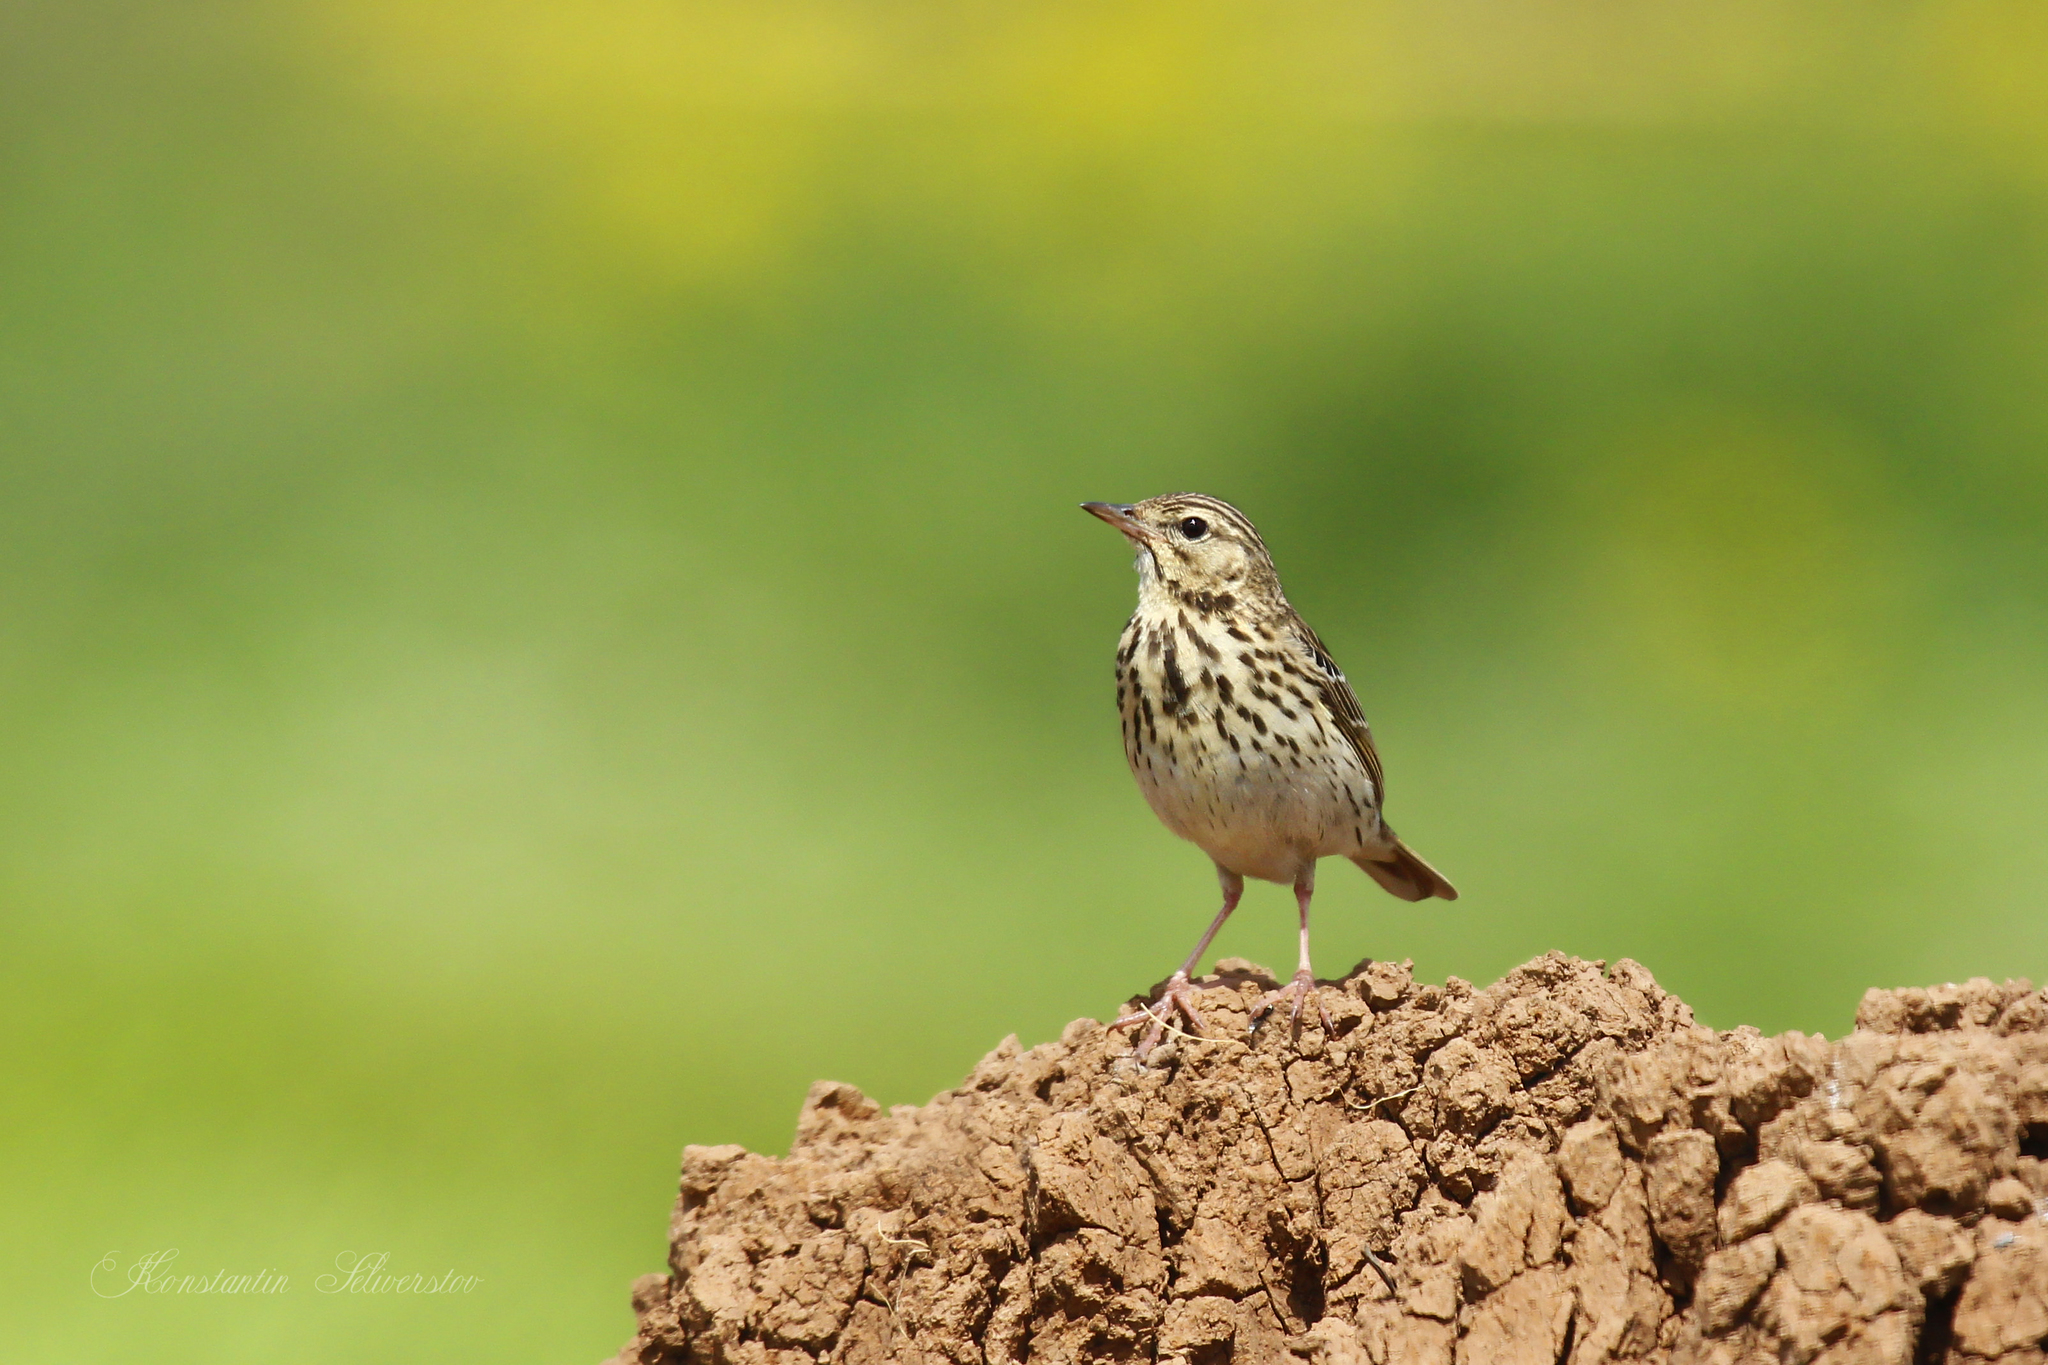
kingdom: Animalia
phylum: Chordata
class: Aves
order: Passeriformes
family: Motacillidae
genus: Anthus
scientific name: Anthus trivialis
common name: Tree pipit
